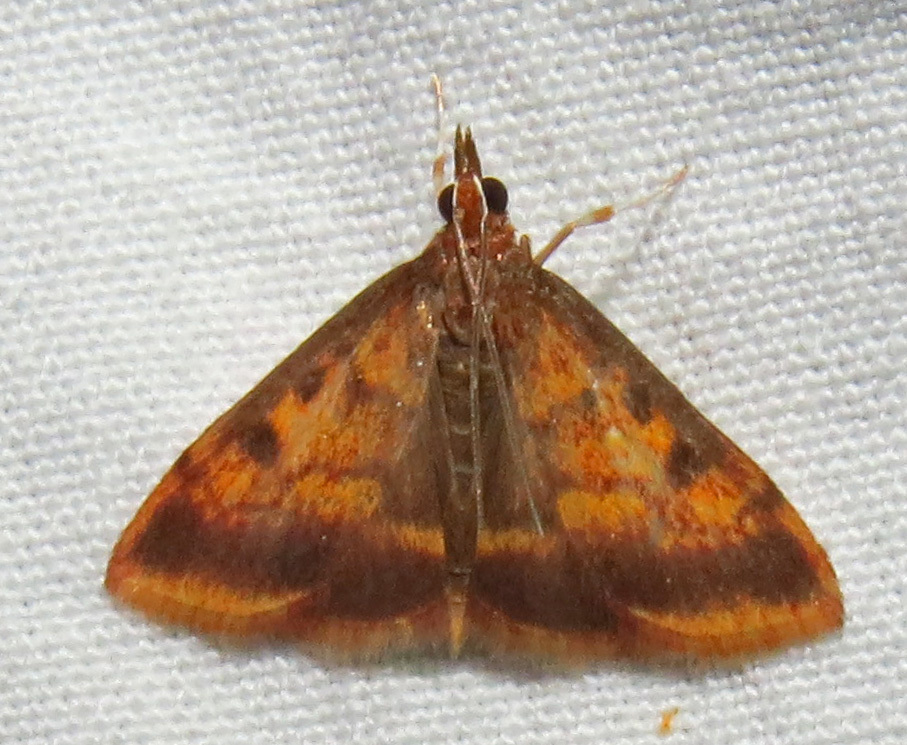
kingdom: Animalia
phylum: Arthropoda
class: Insecta
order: Lepidoptera
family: Crambidae
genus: Pyrausta
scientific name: Pyrausta acrionalis
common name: Mint-loving pyrausta moth
